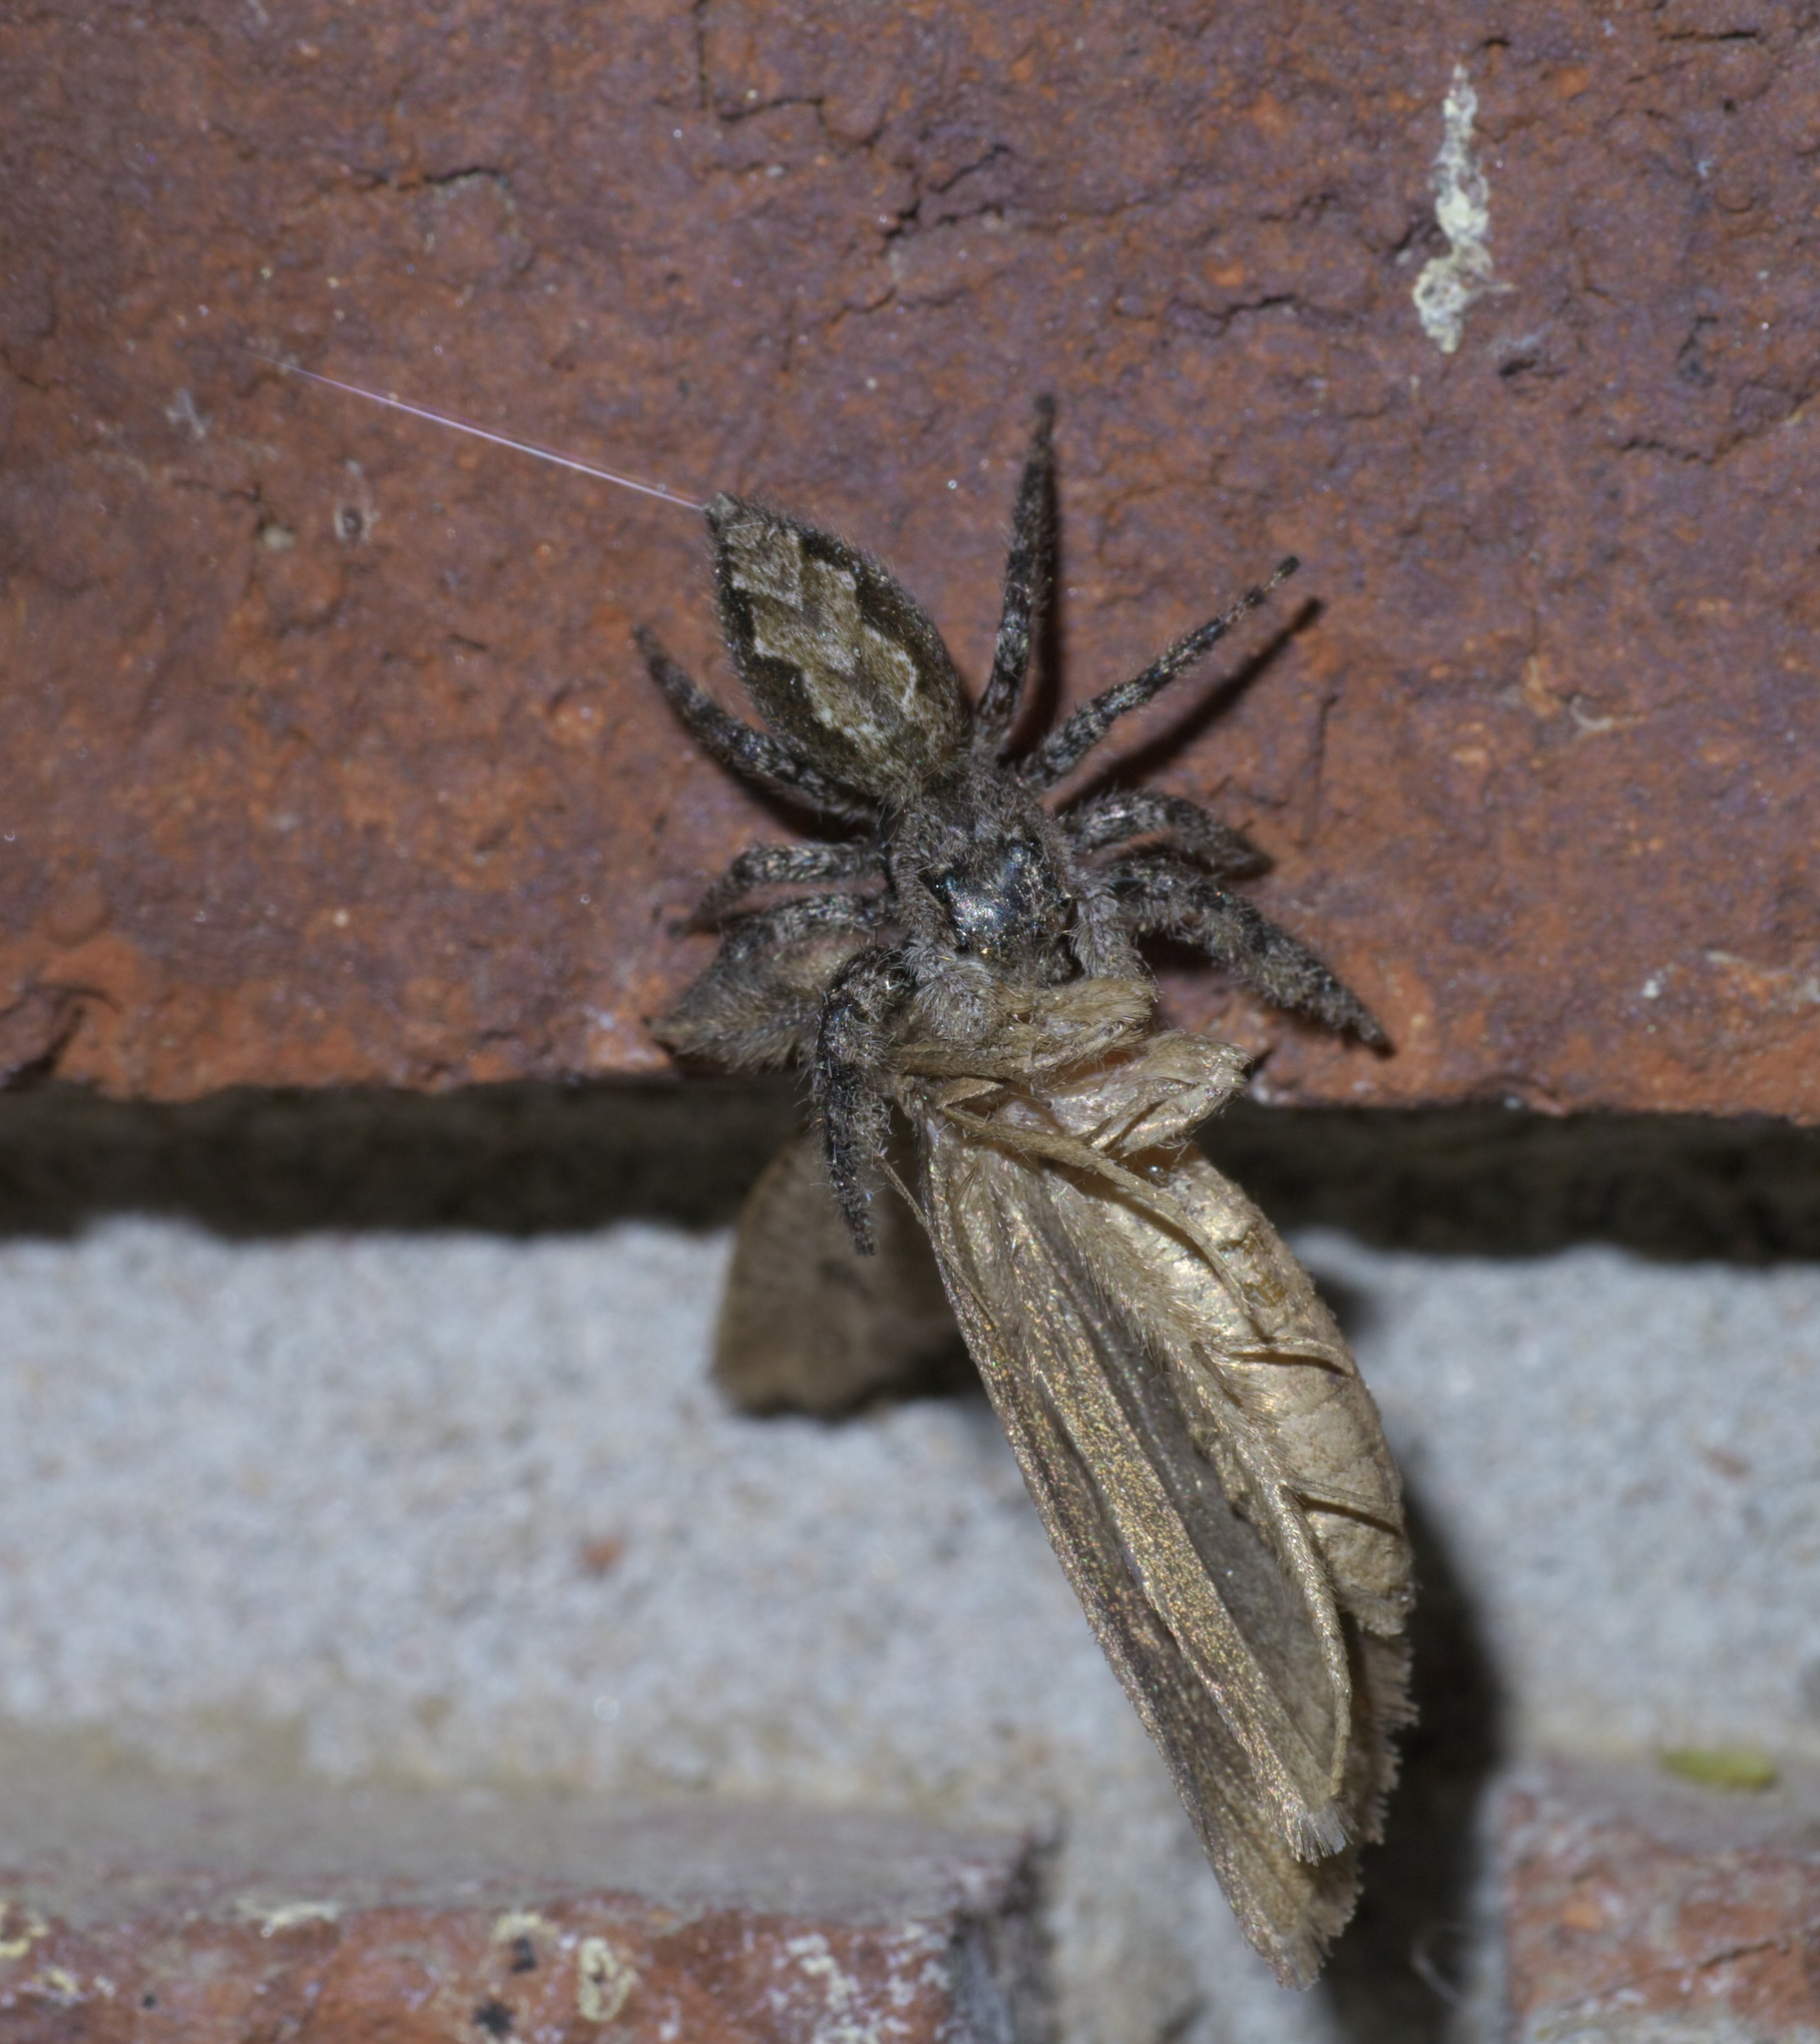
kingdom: Animalia
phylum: Arthropoda
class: Arachnida
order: Araneae
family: Salticidae
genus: Platycryptus
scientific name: Platycryptus undatus
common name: Tan jumping spider
